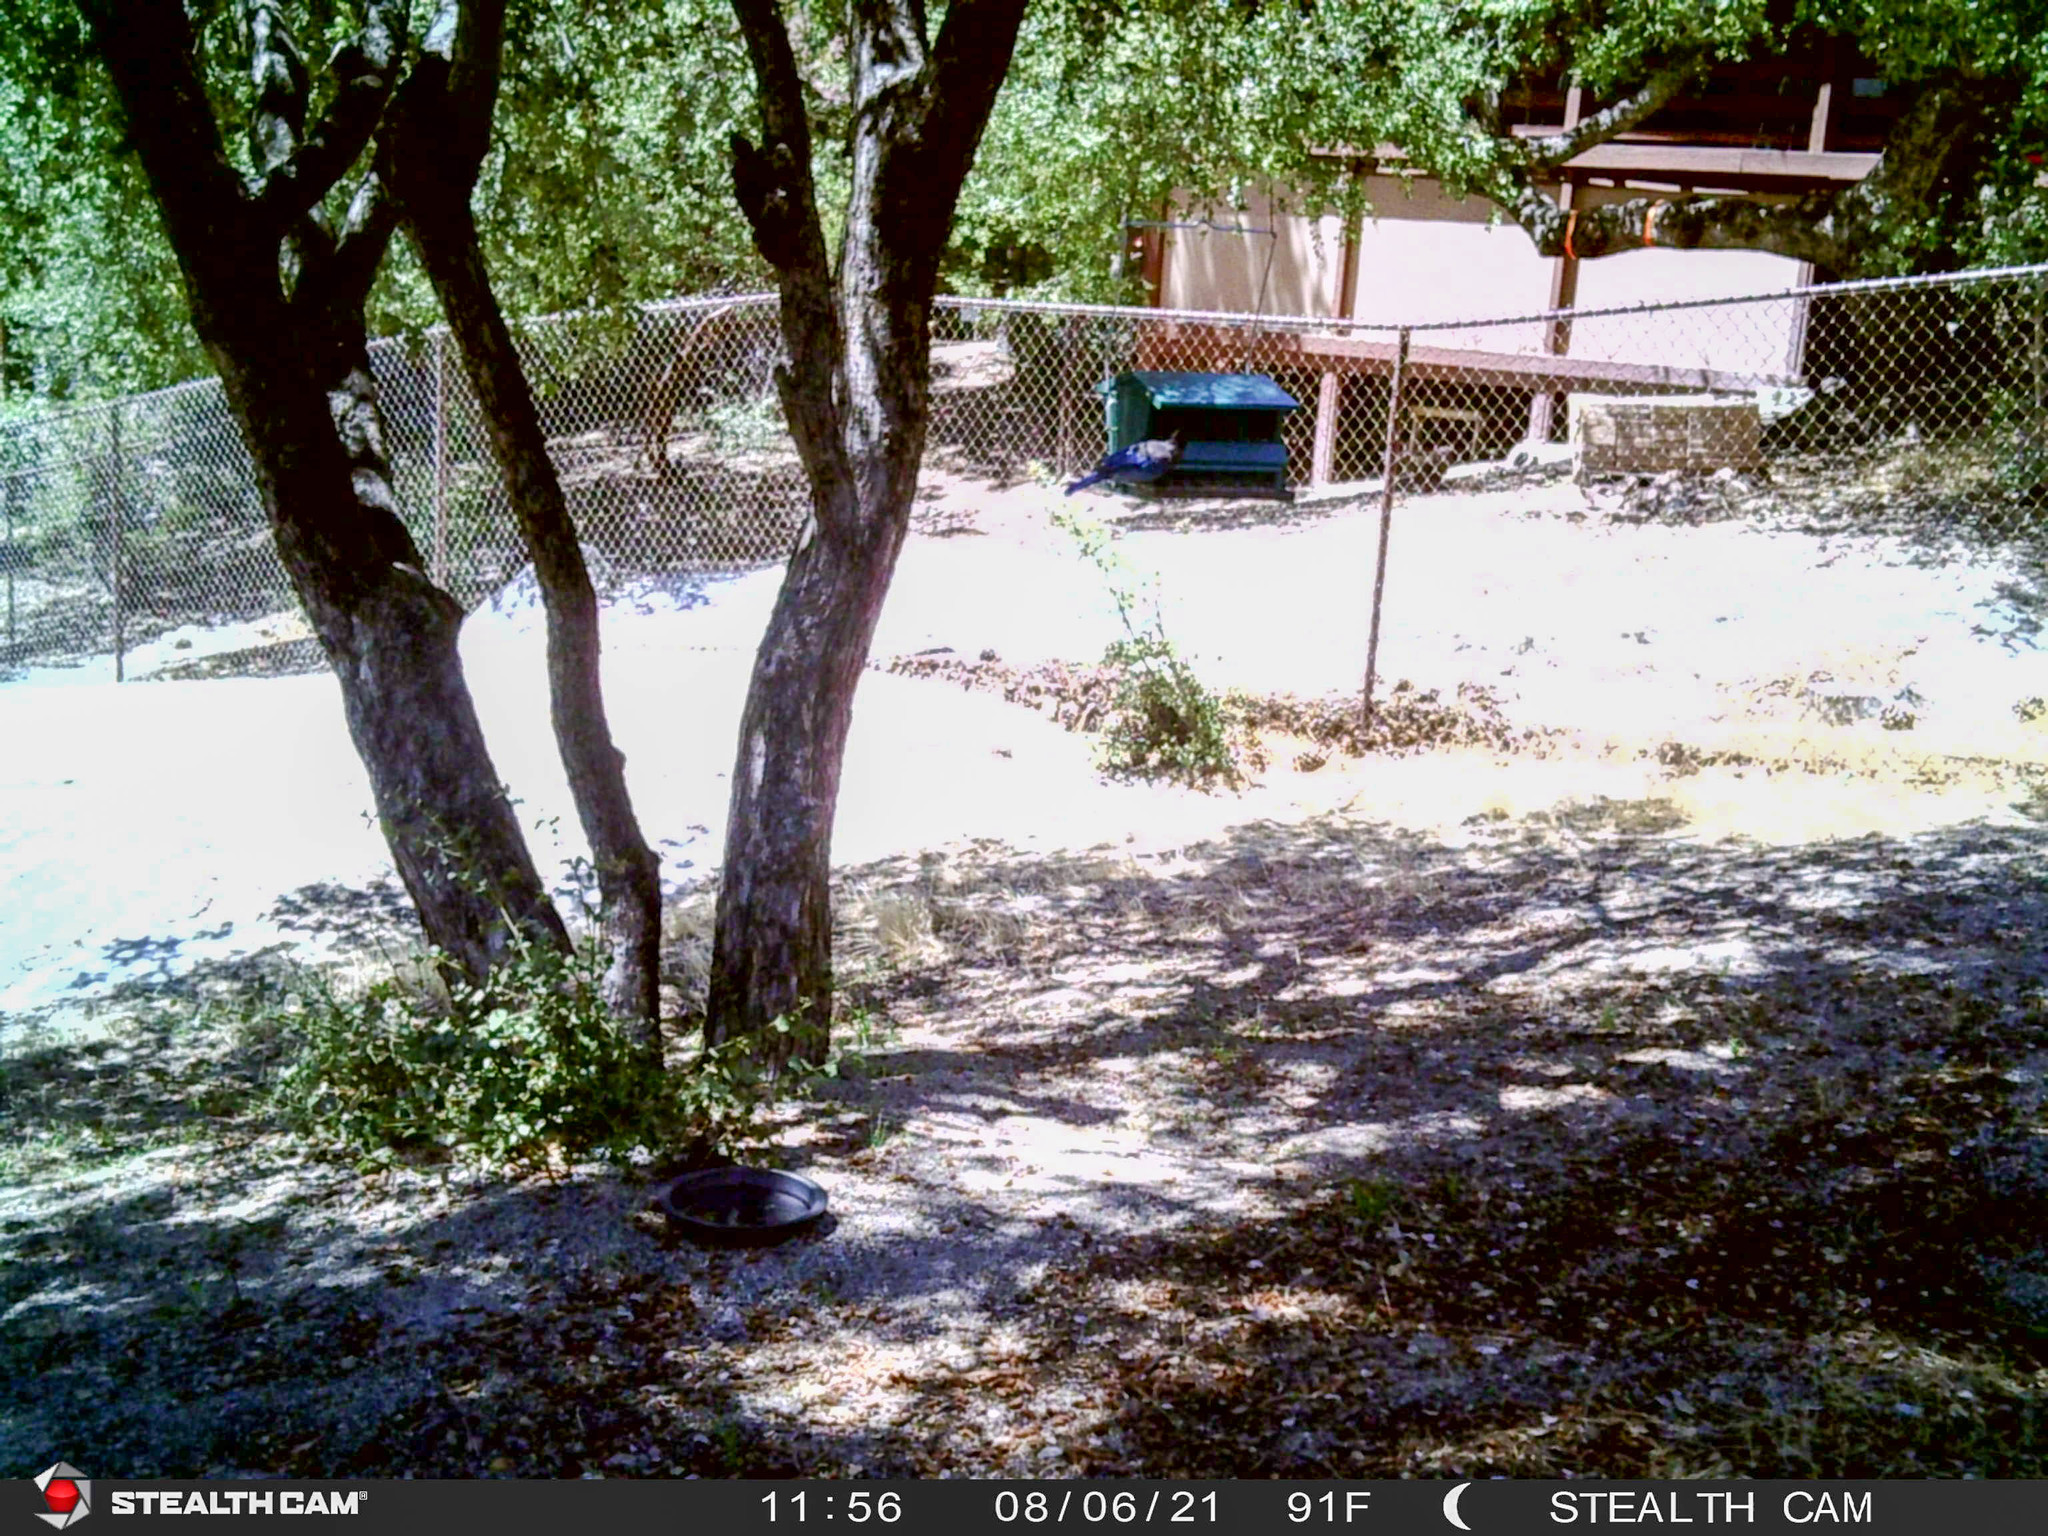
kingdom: Animalia
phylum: Chordata
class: Aves
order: Passeriformes
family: Corvidae
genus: Cyanocitta
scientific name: Cyanocitta stelleri
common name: Steller's jay
